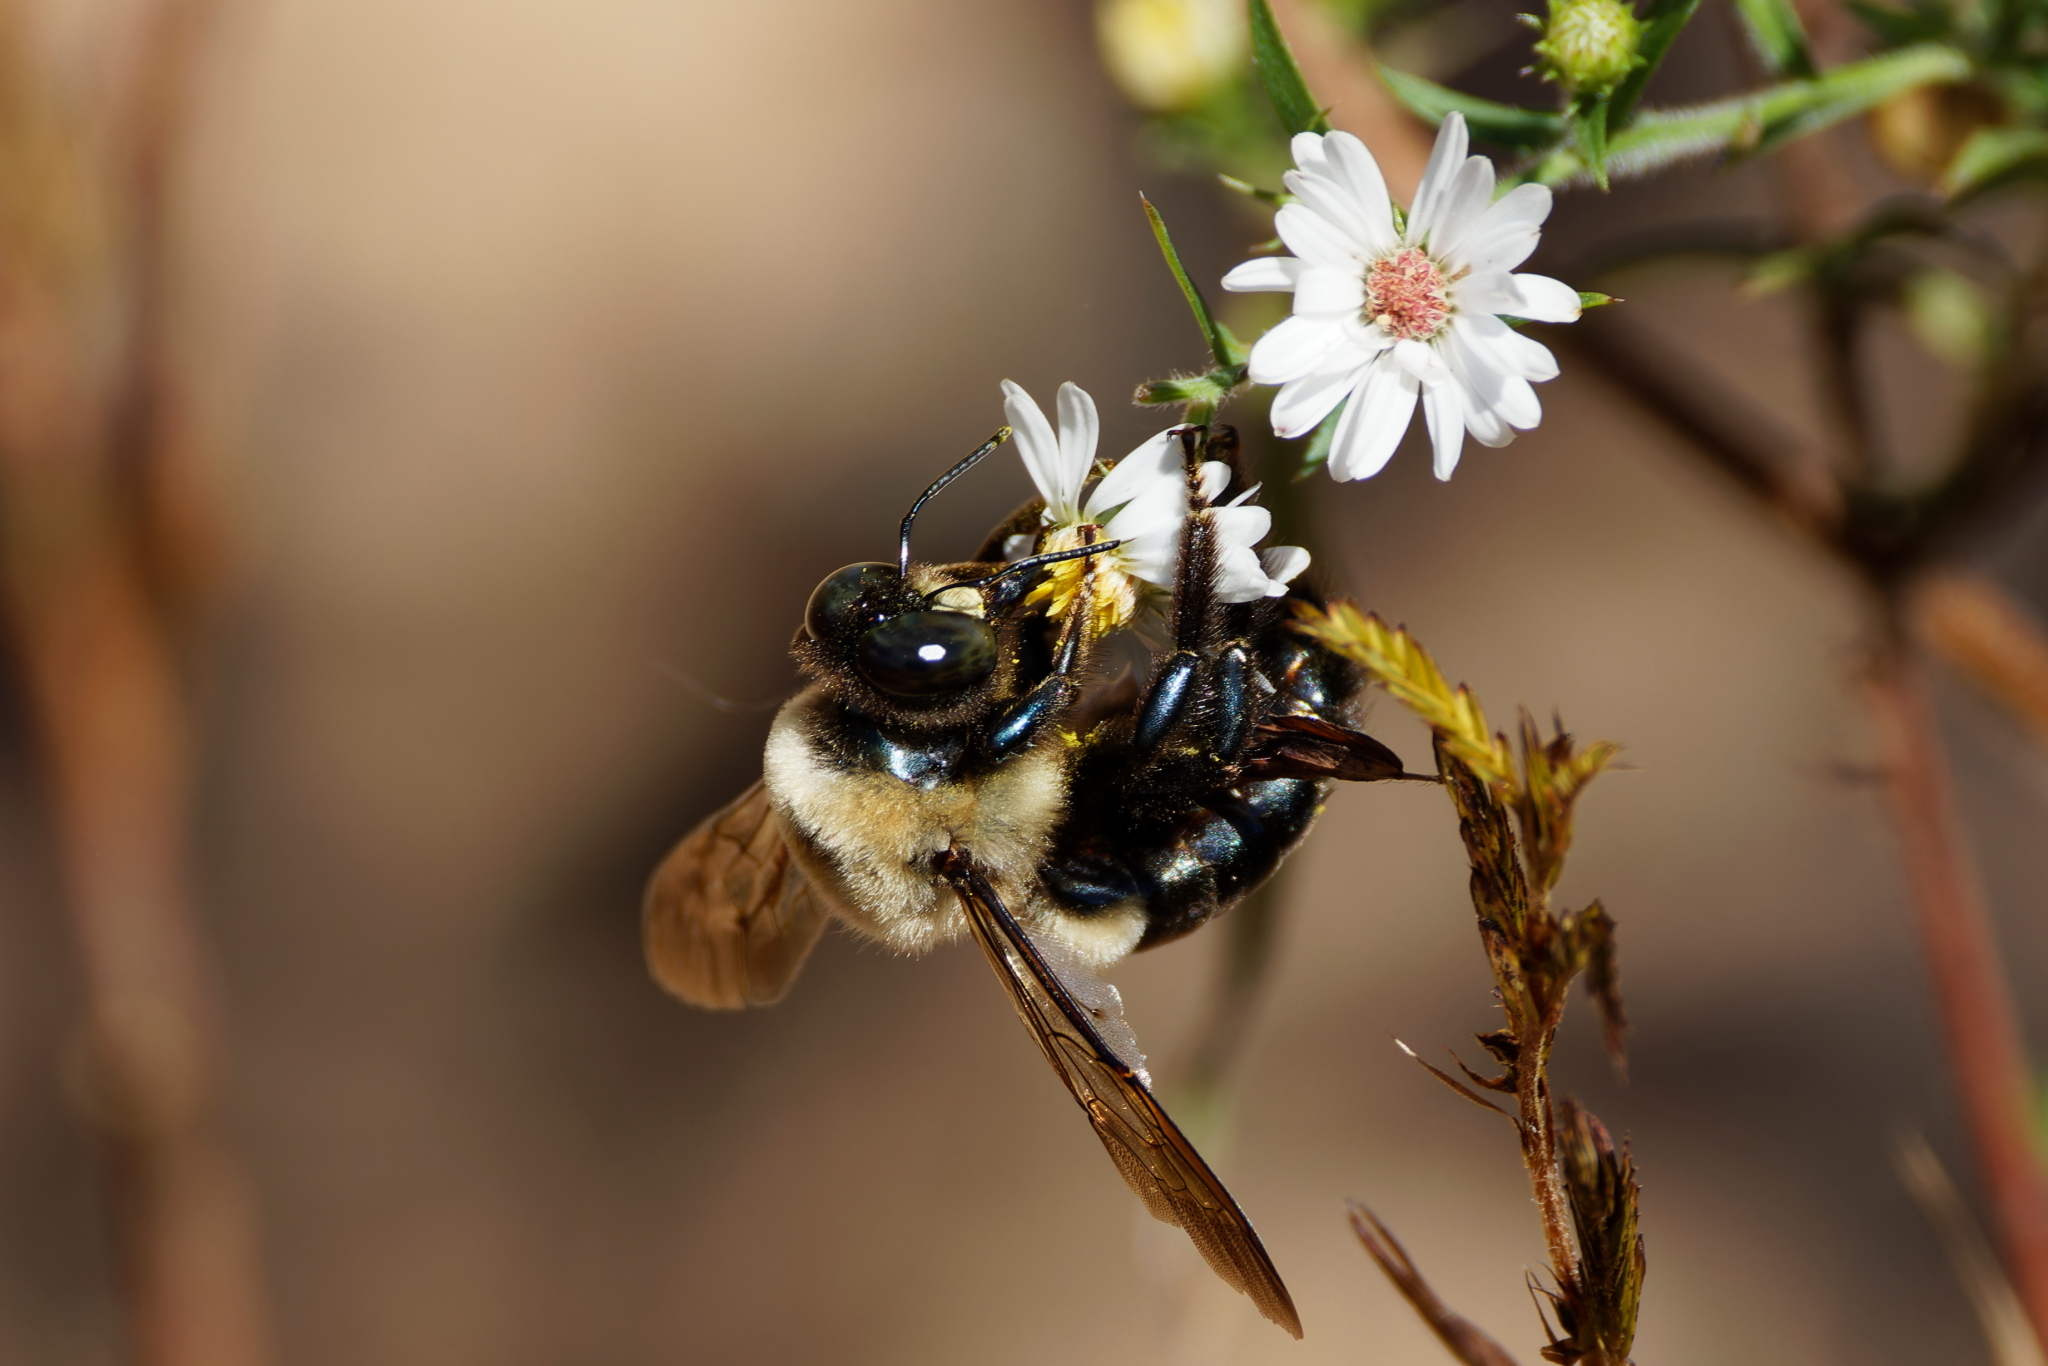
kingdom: Animalia
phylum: Arthropoda
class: Insecta
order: Hymenoptera
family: Apidae
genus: Xylocopa
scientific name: Xylocopa virginica
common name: Carpenter bee
